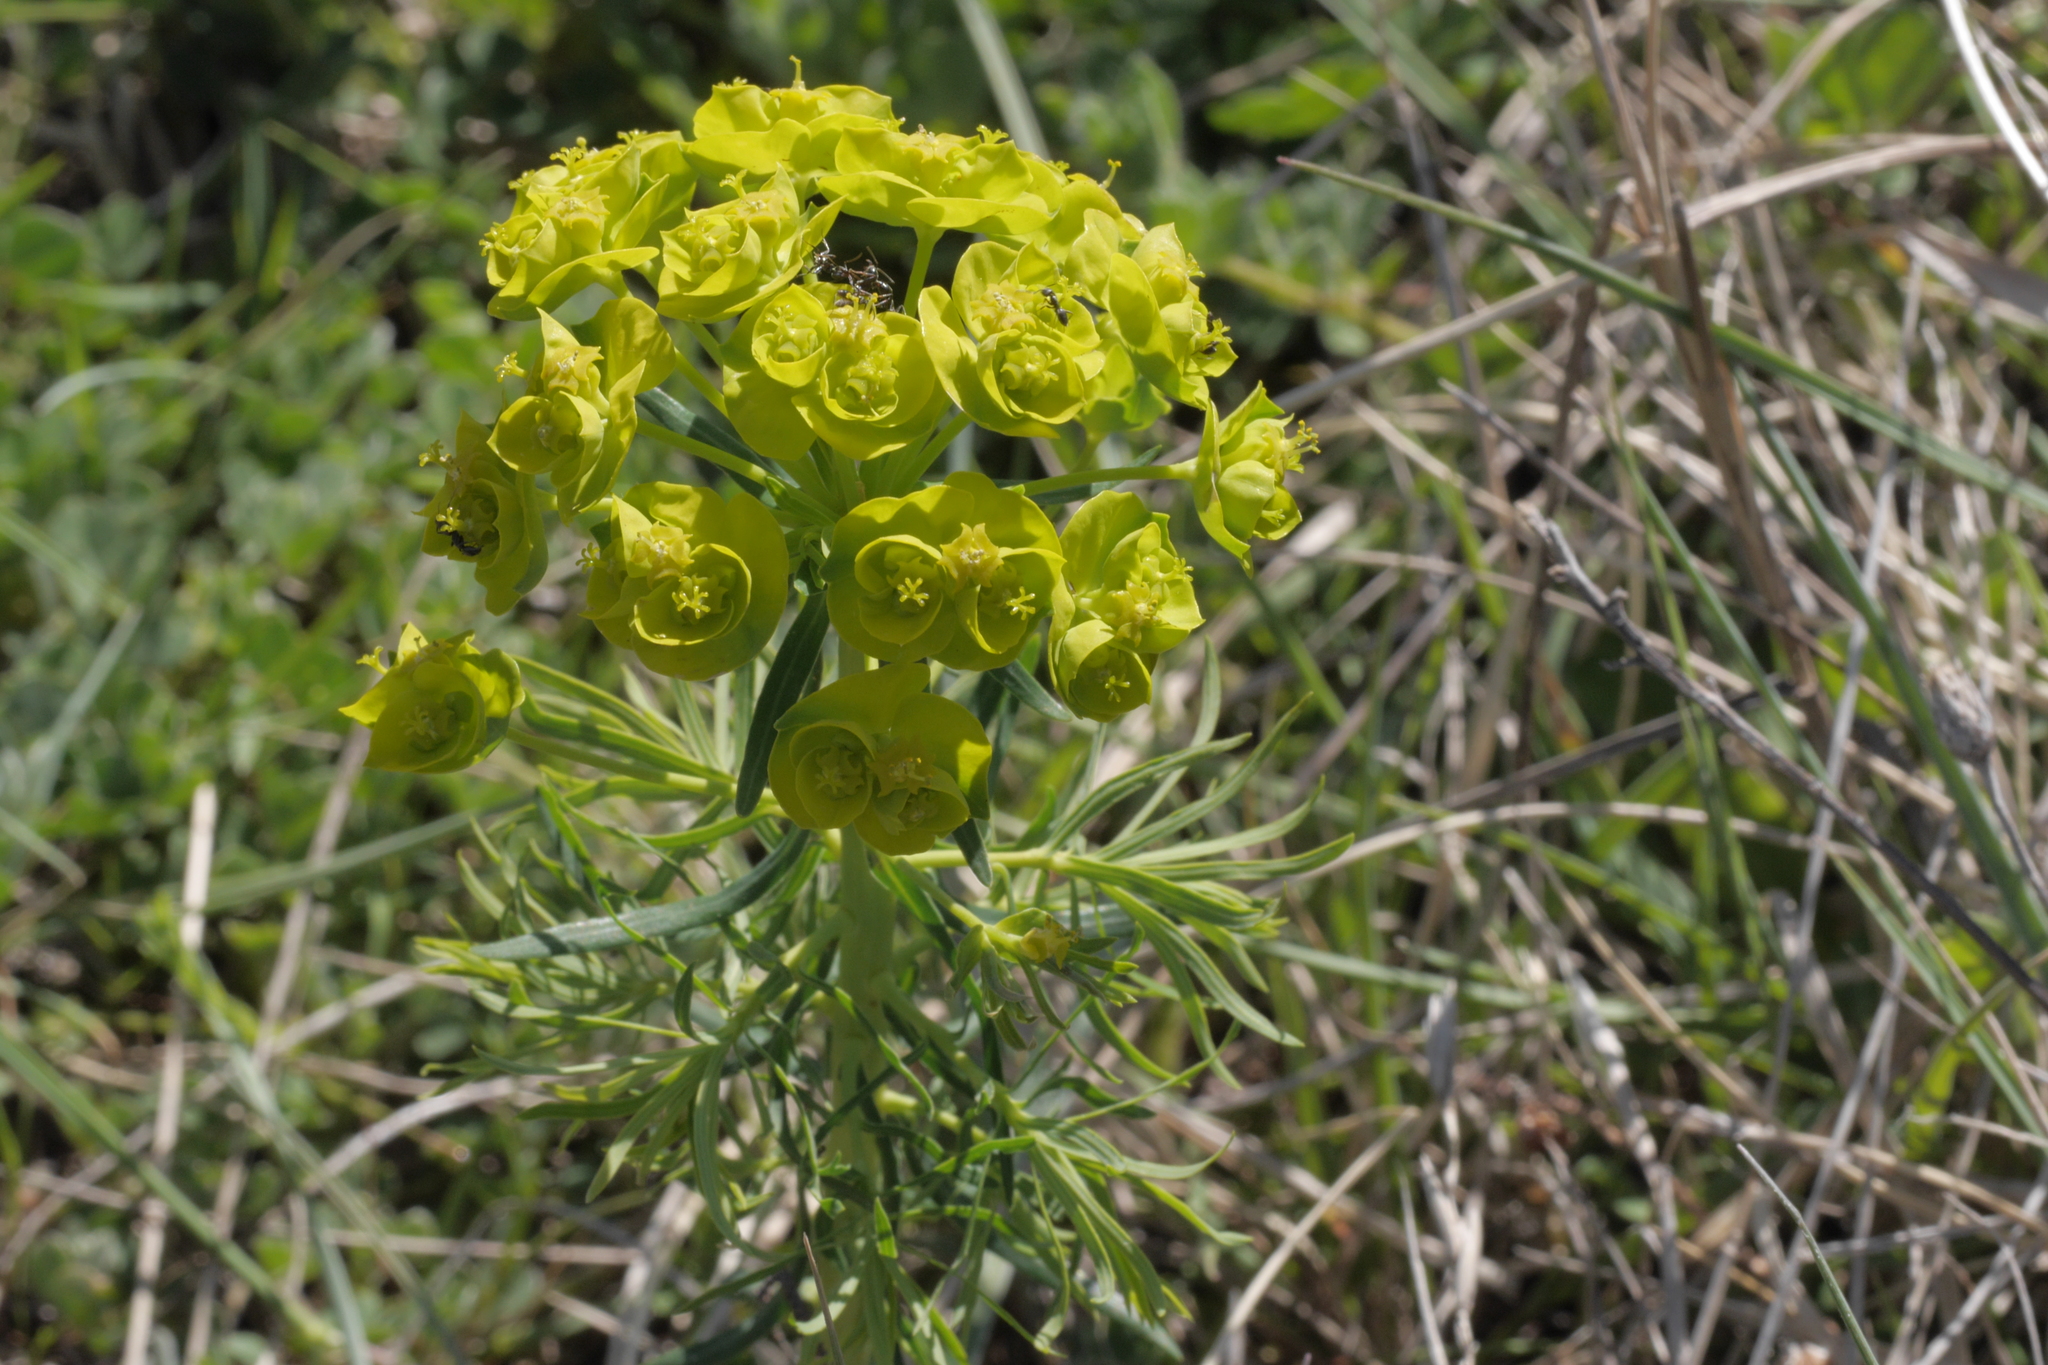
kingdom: Plantae
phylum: Tracheophyta
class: Magnoliopsida
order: Malpighiales
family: Euphorbiaceae
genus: Euphorbia
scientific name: Euphorbia cyparissias
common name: Cypress spurge
